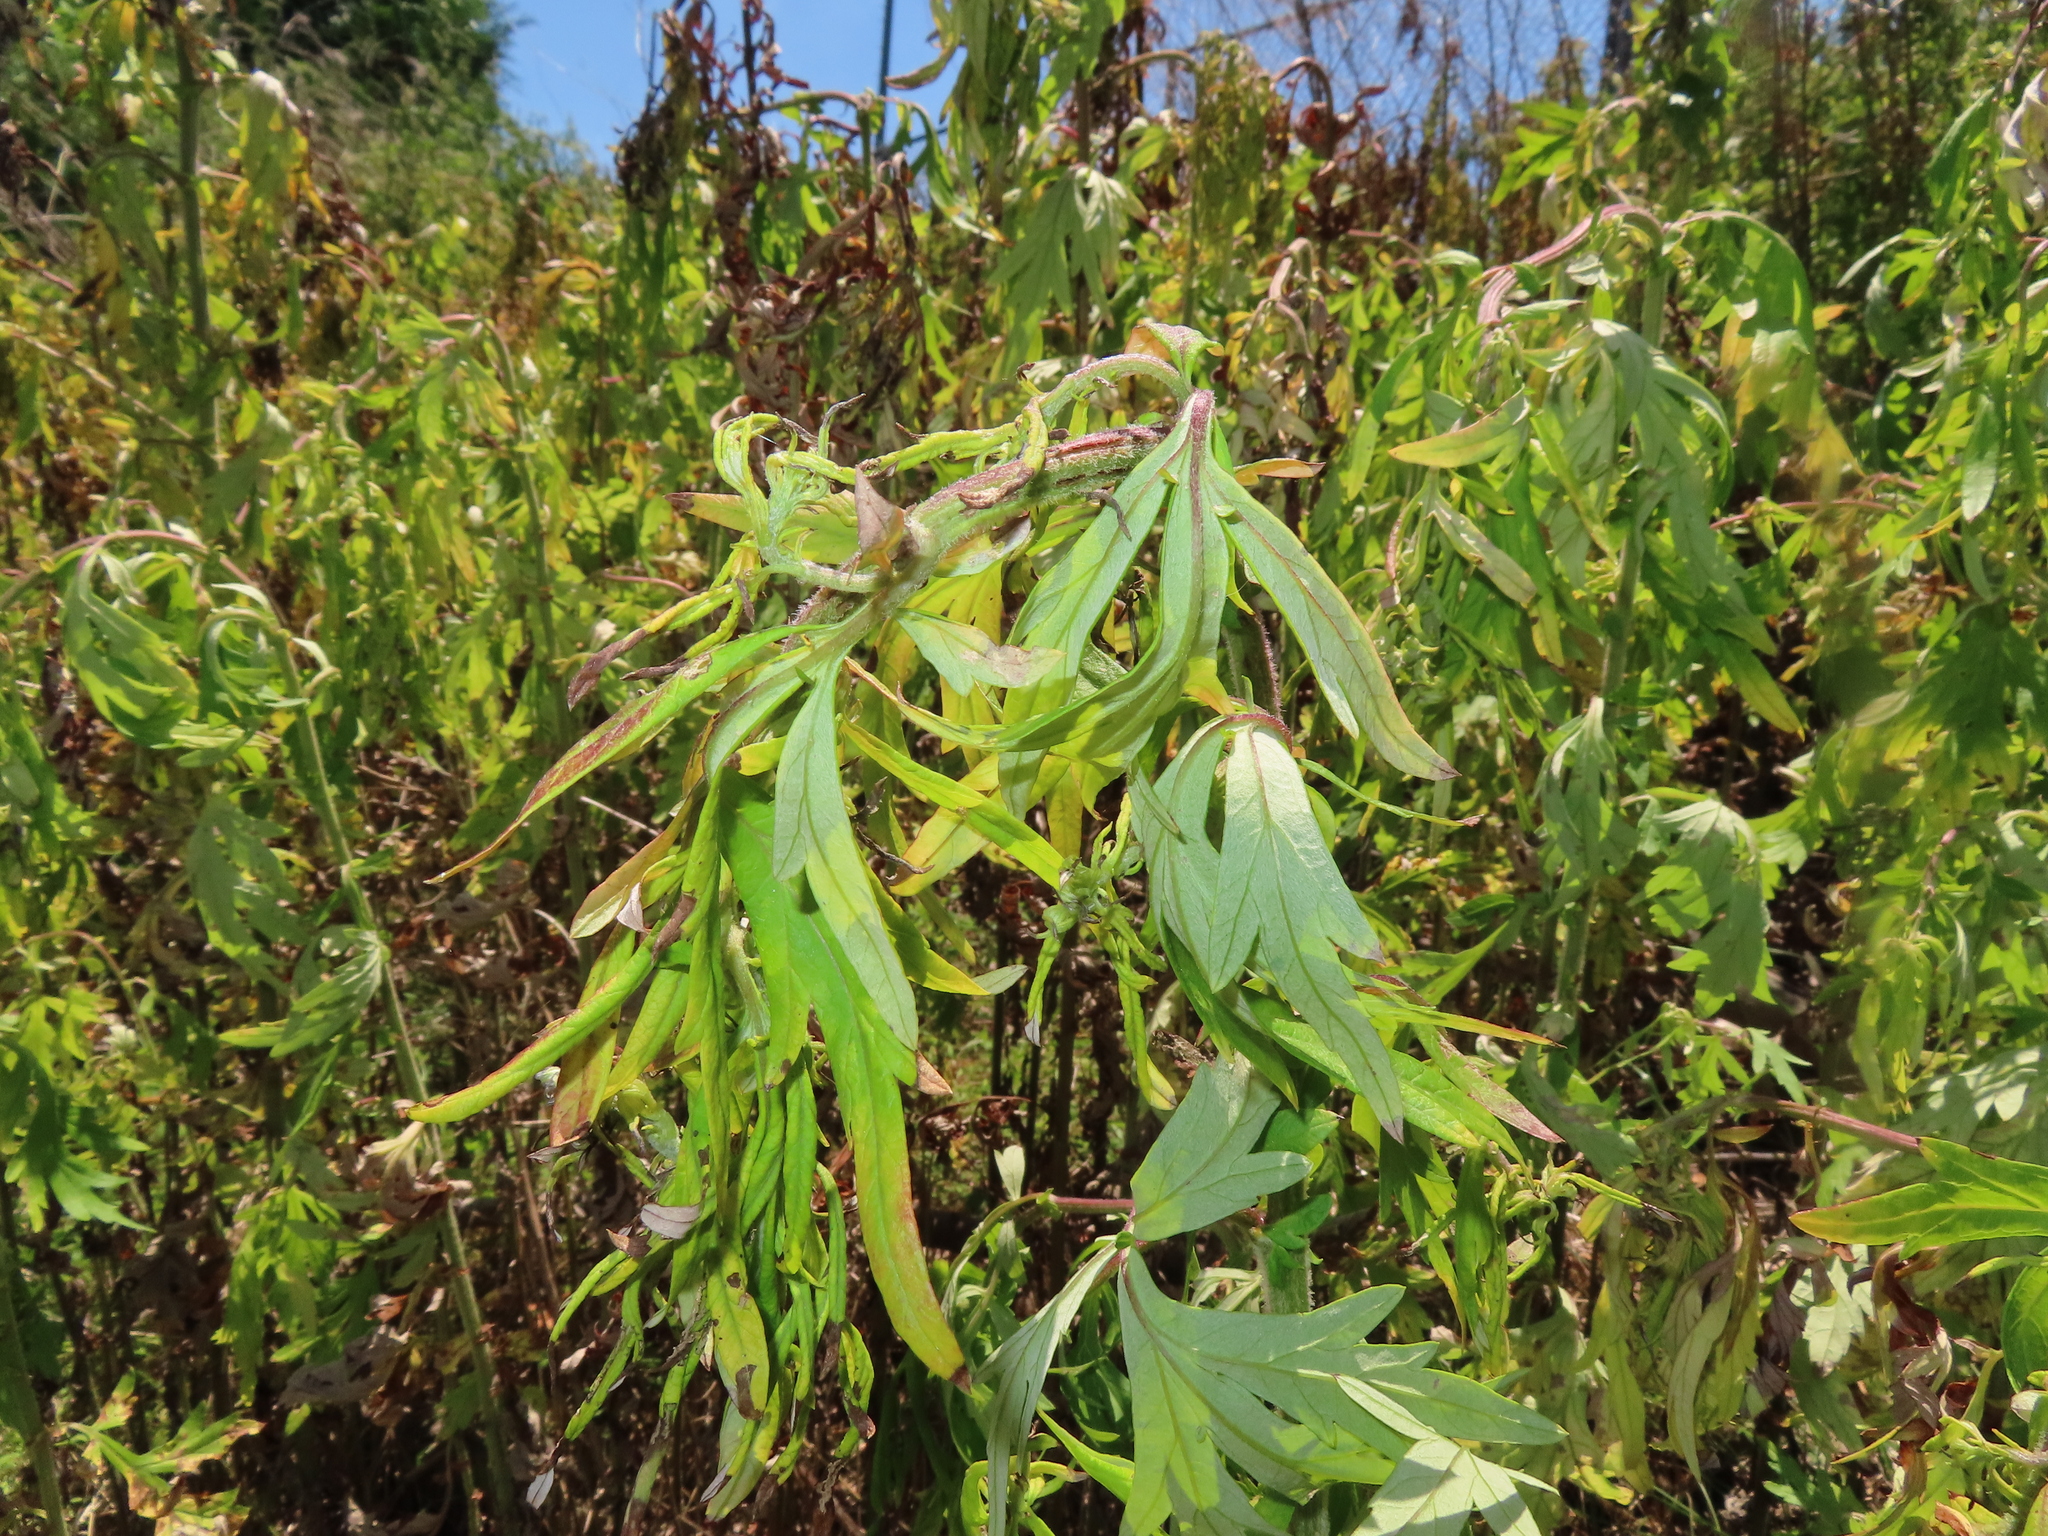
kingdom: Plantae
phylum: Tracheophyta
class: Magnoliopsida
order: Asterales
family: Asteraceae
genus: Artemisia
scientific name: Artemisia vulgaris
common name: Mugwort
